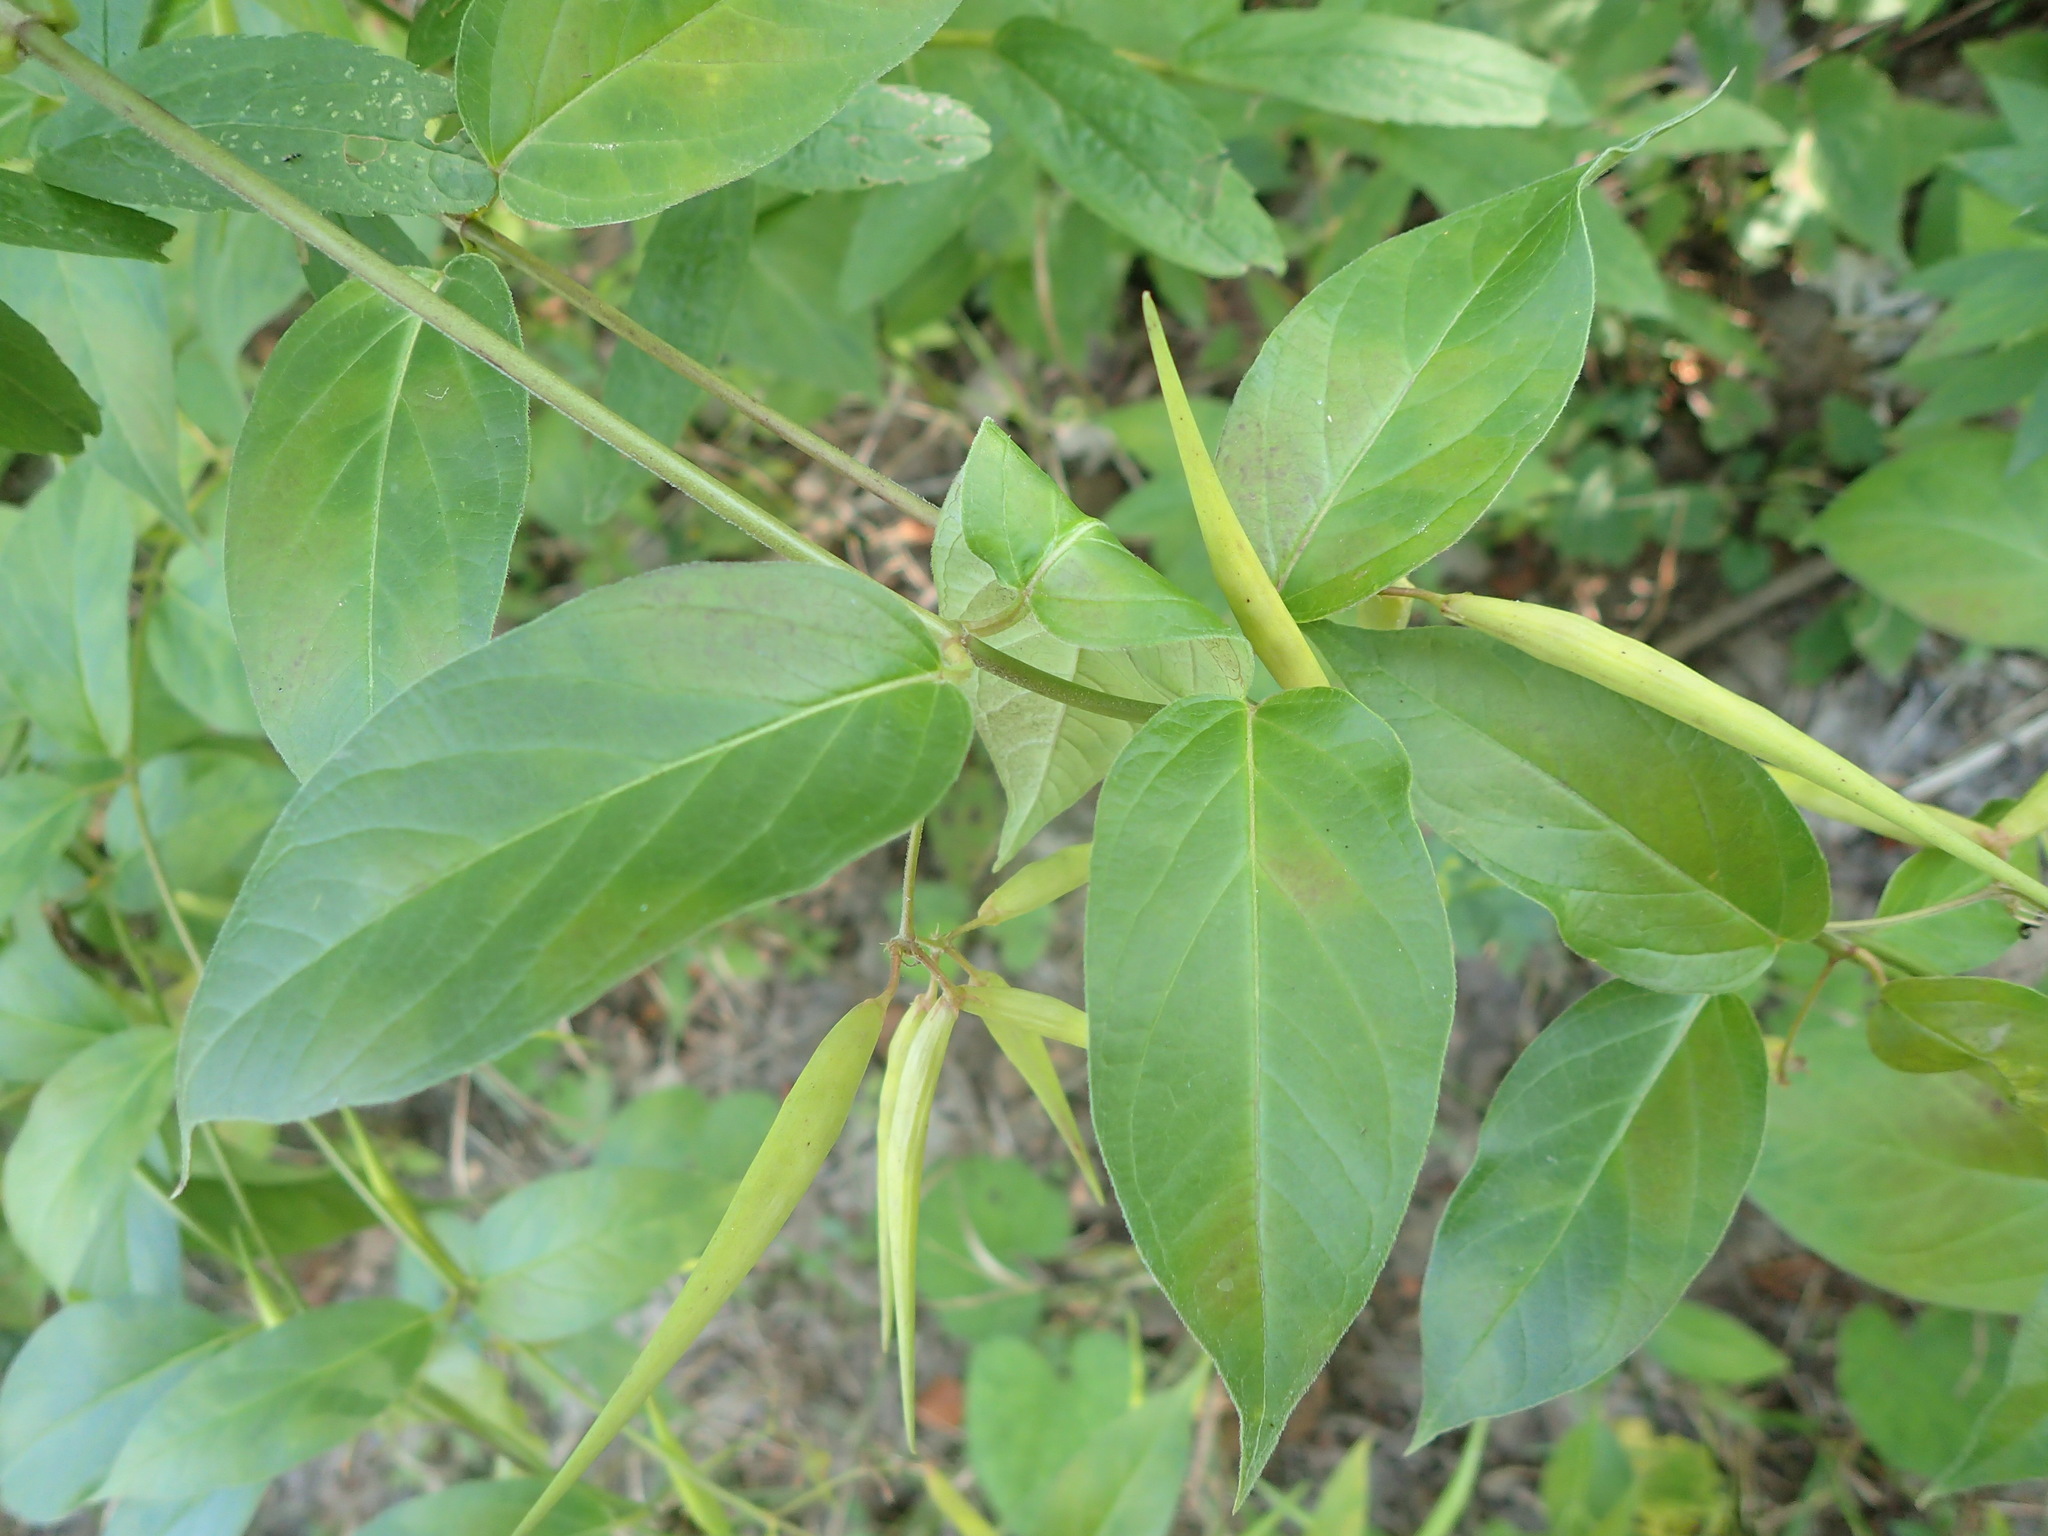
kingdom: Plantae
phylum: Tracheophyta
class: Magnoliopsida
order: Gentianales
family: Apocynaceae
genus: Vincetoxicum
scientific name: Vincetoxicum
